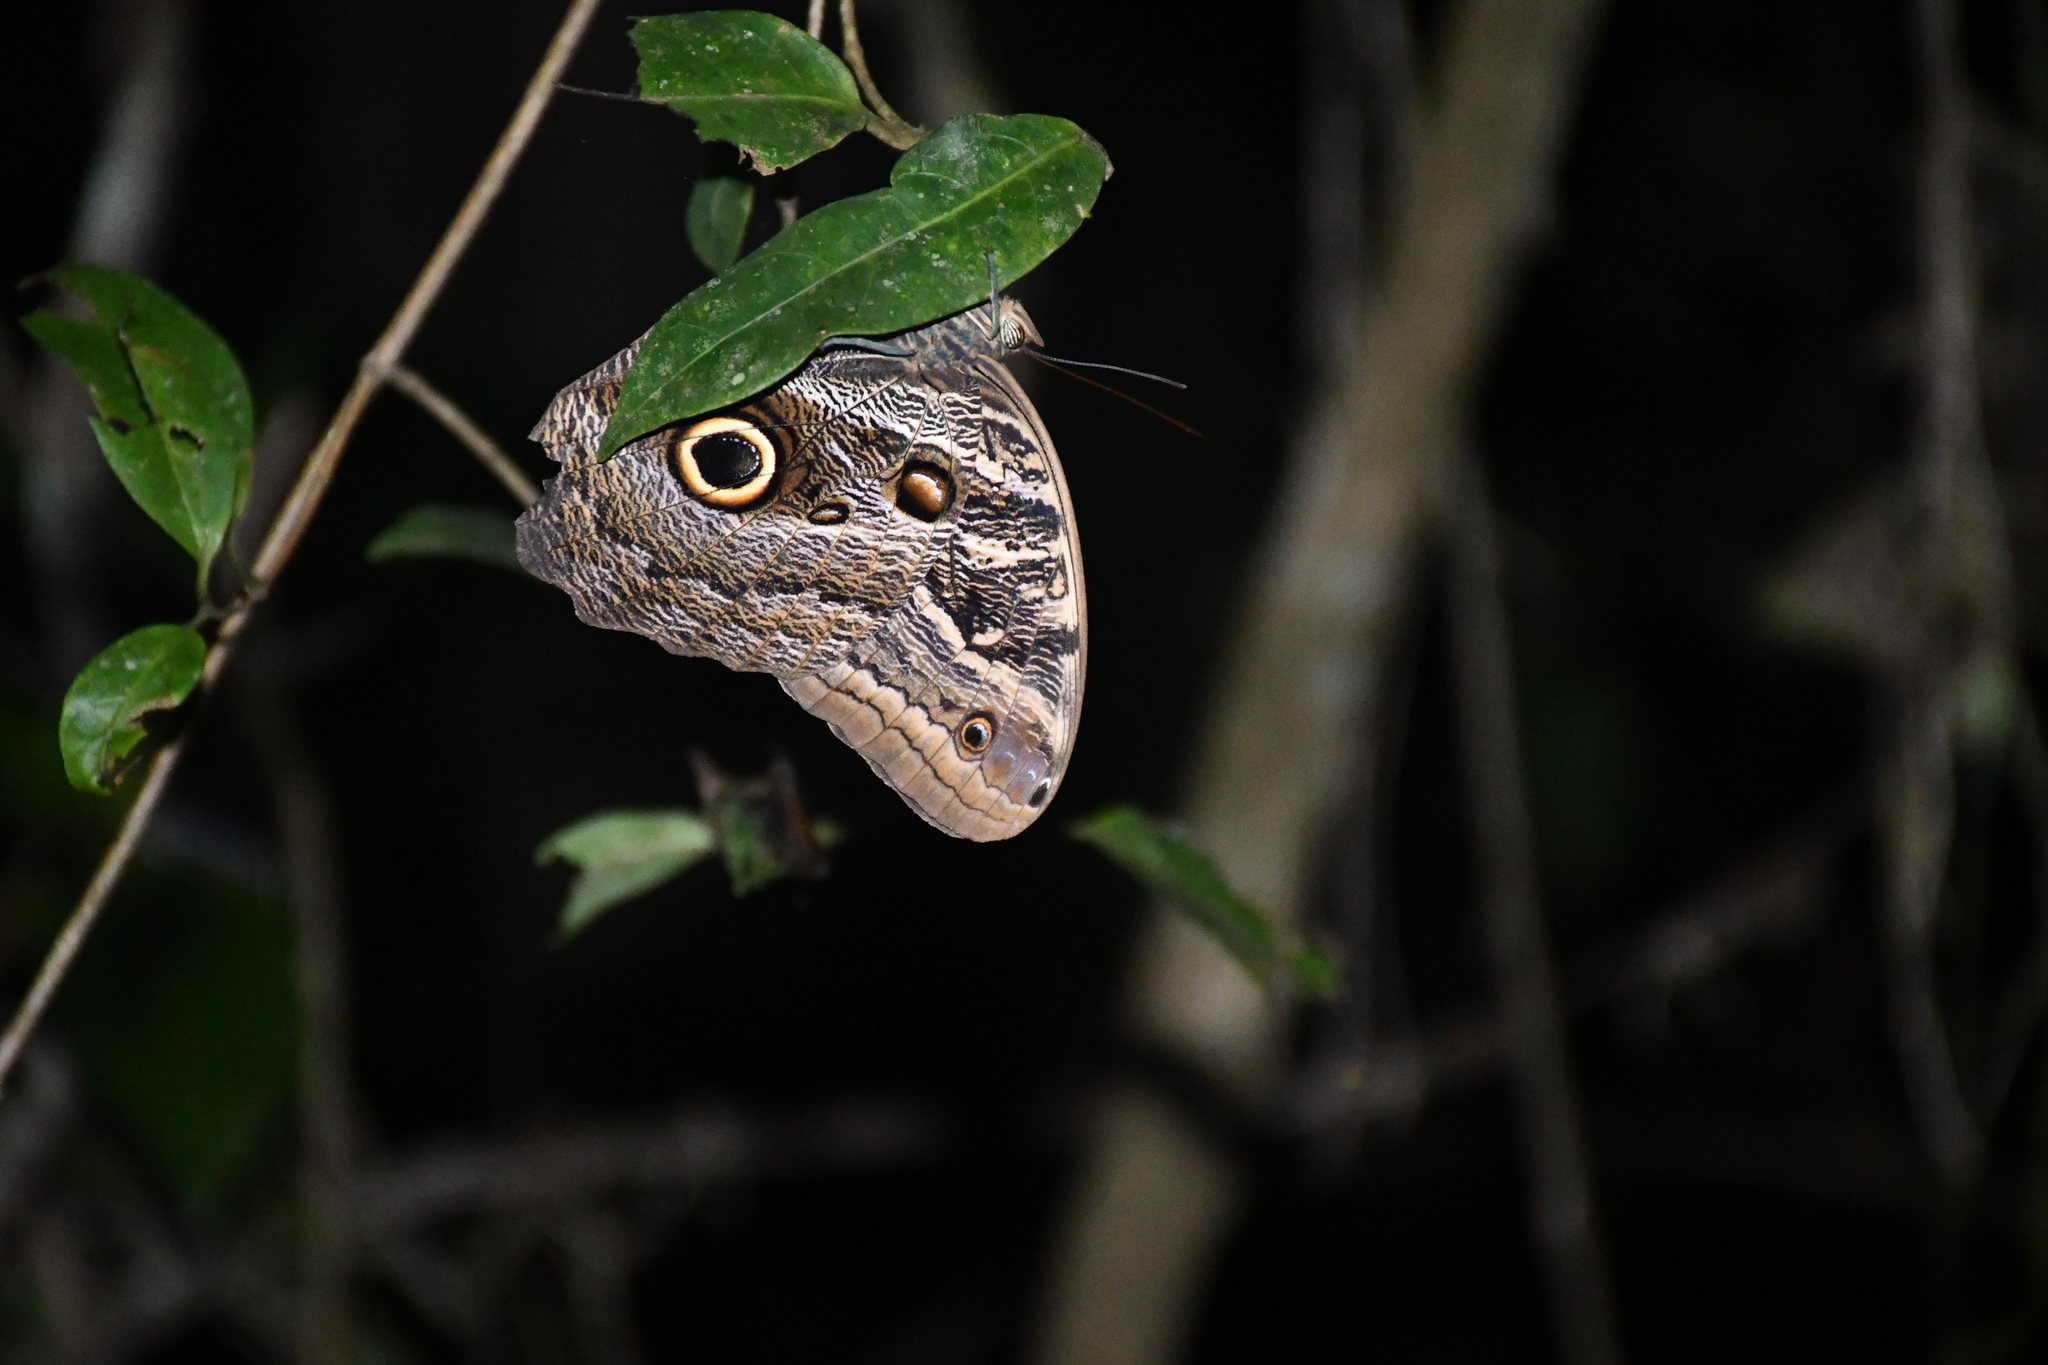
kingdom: Animalia
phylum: Arthropoda
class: Insecta
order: Lepidoptera
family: Nymphalidae
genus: Caligo
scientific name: Caligo illioneus
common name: Dusky owl-butterfly
